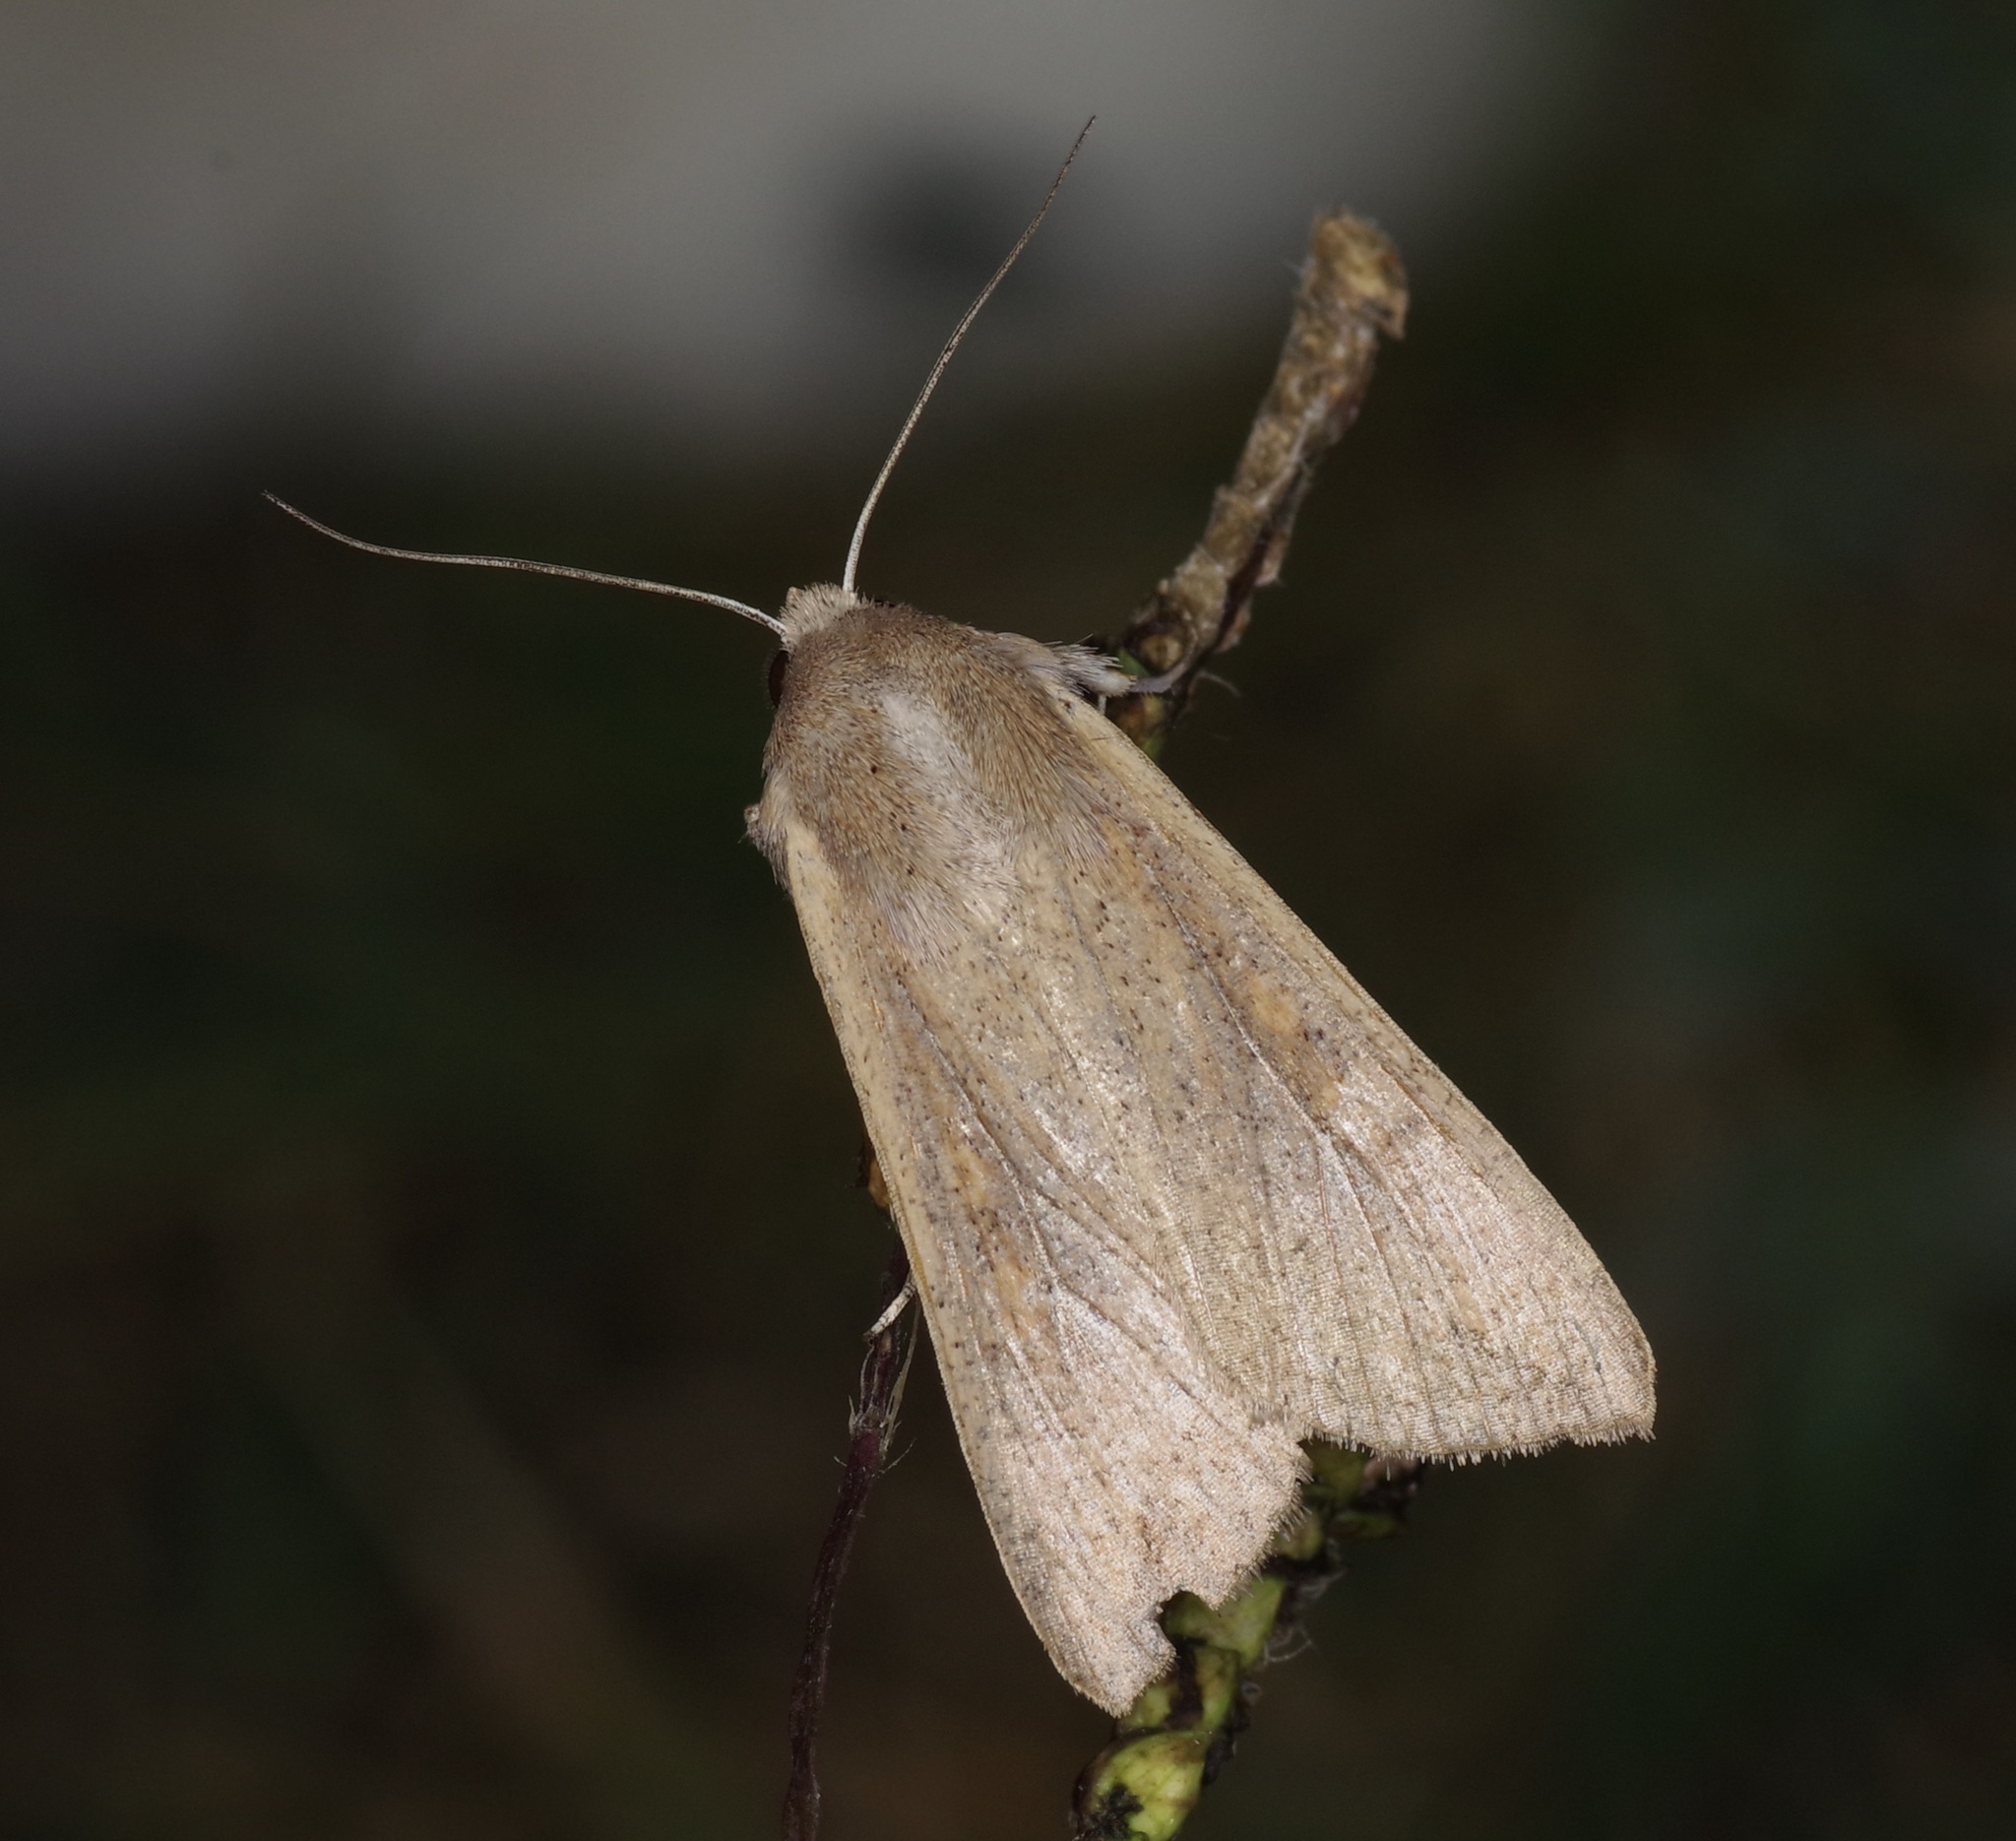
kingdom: Animalia
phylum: Arthropoda
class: Insecta
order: Lepidoptera
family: Noctuidae
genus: Mythimna
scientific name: Mythimna unipuncta
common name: White-speck
